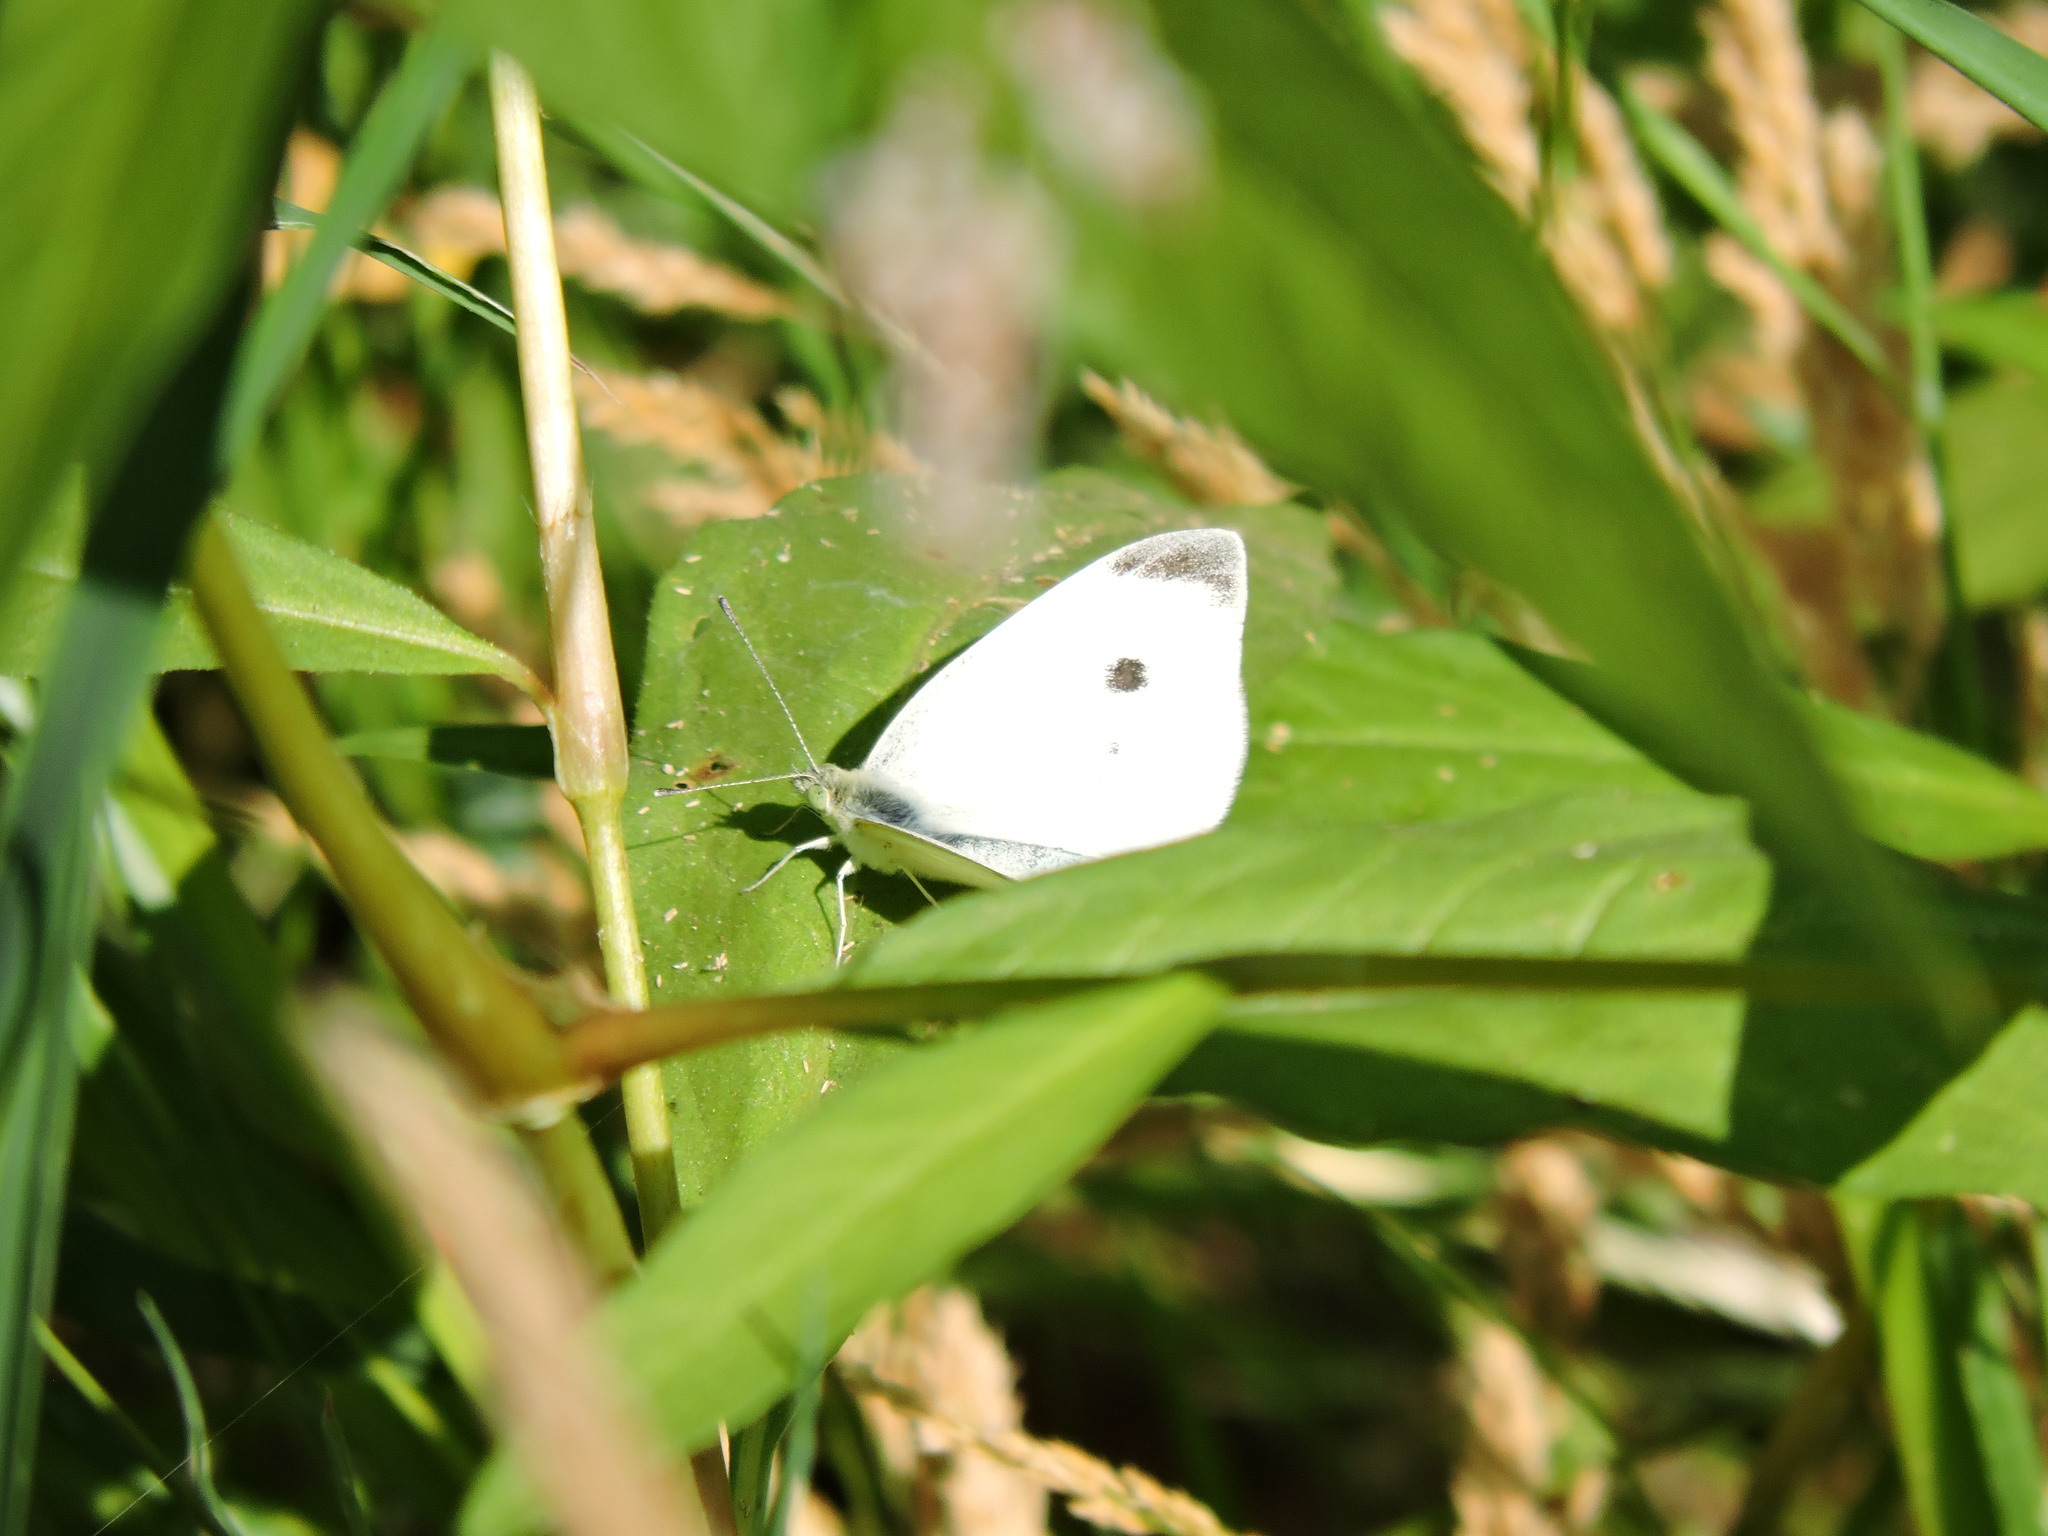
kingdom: Animalia
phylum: Arthropoda
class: Insecta
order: Lepidoptera
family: Pieridae
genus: Pieris
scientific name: Pieris rapae
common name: Small white
